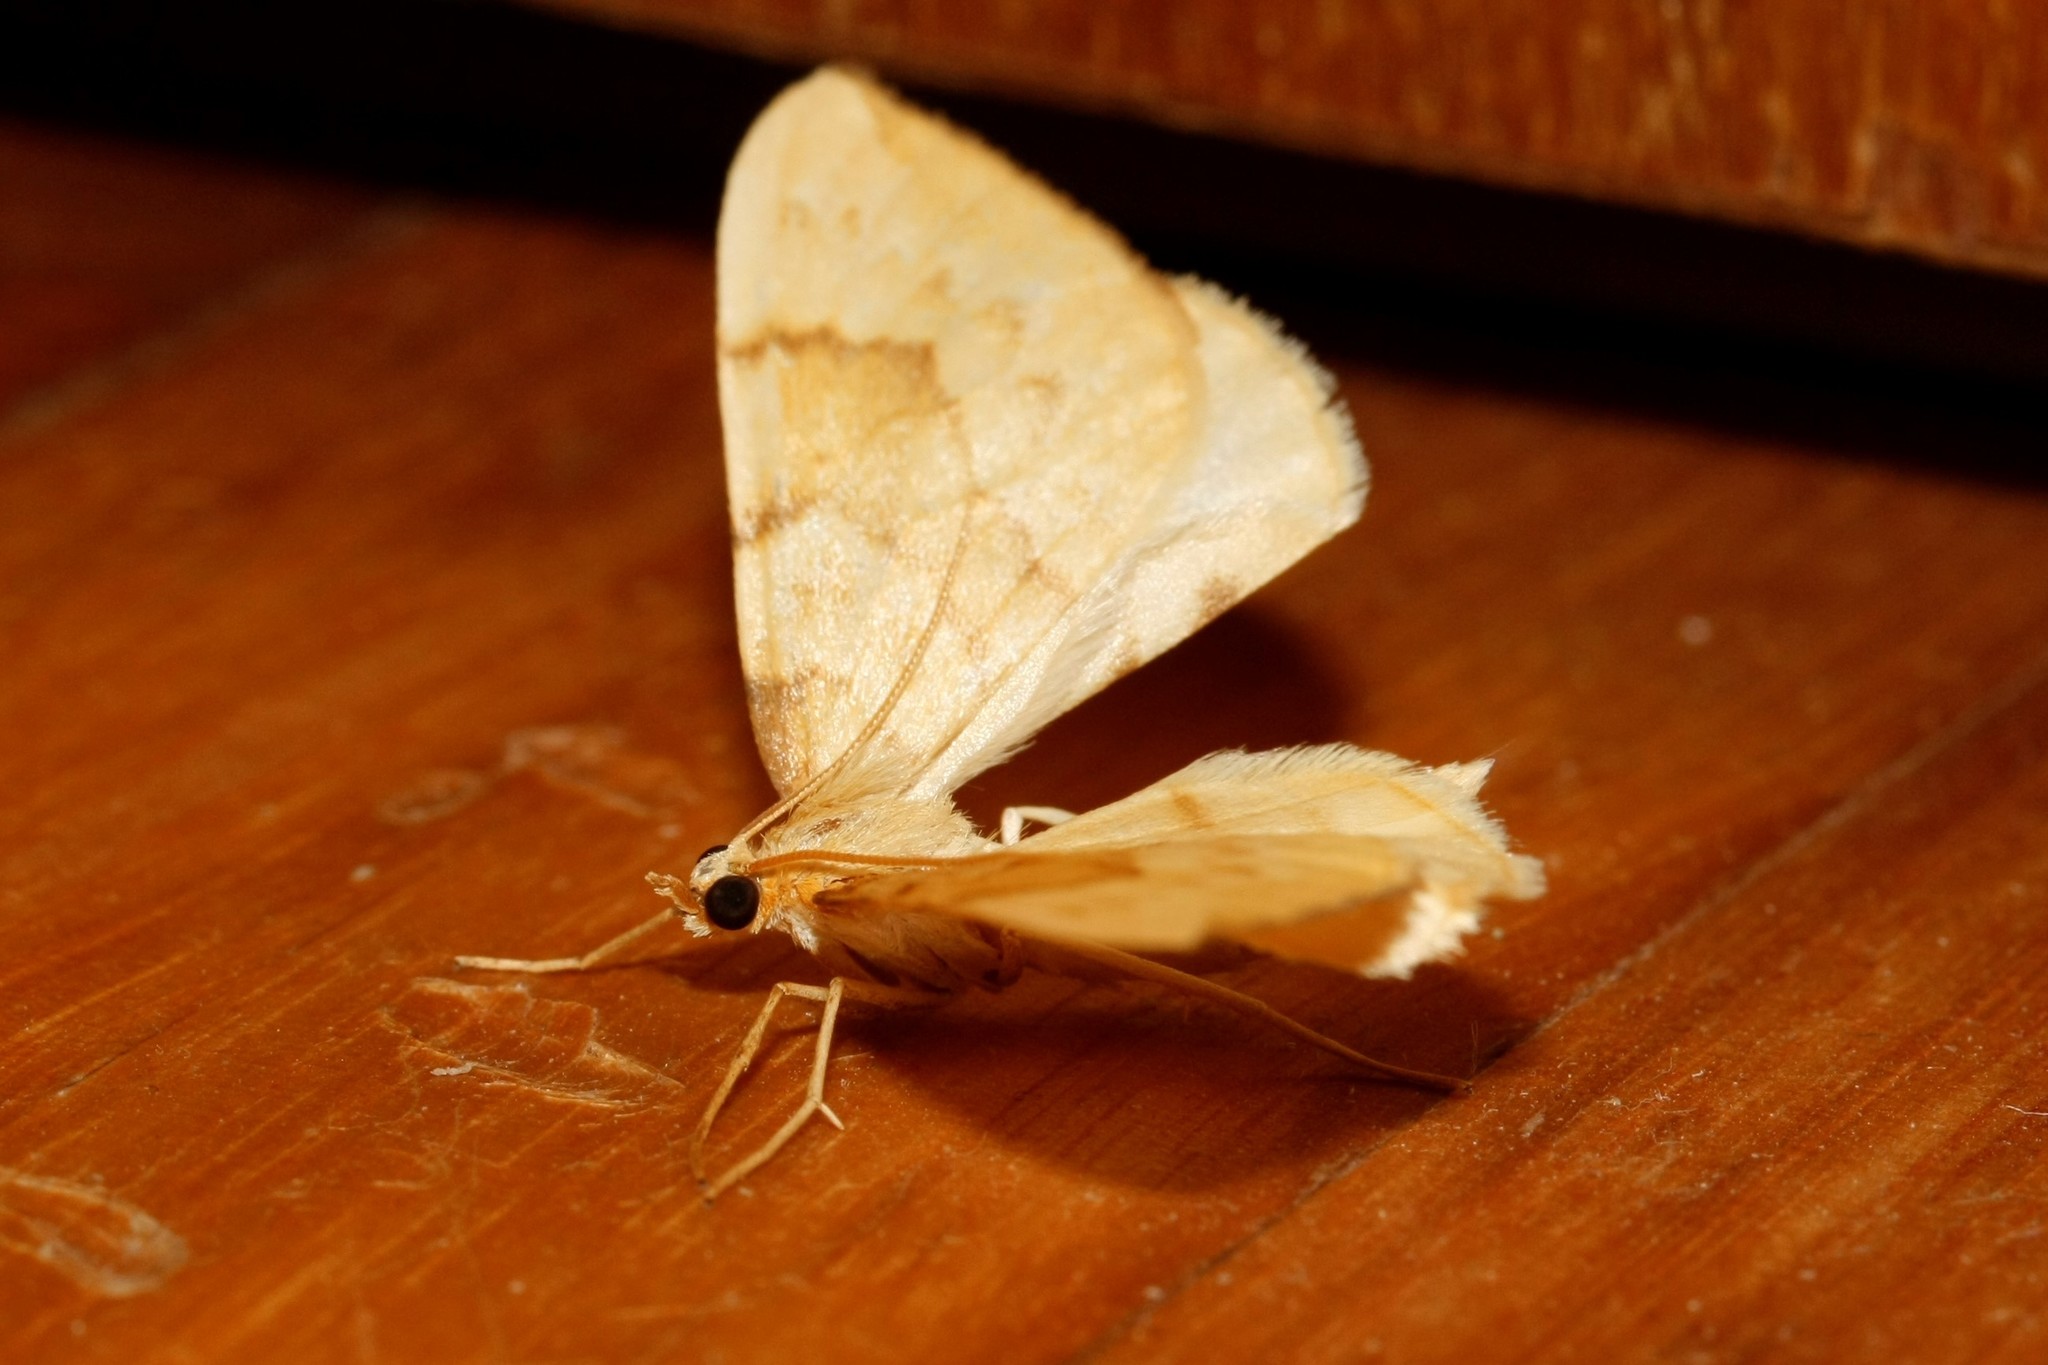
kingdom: Animalia
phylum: Arthropoda
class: Insecta
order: Lepidoptera
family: Geometridae
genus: Eulithis
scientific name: Eulithis pyraliata
